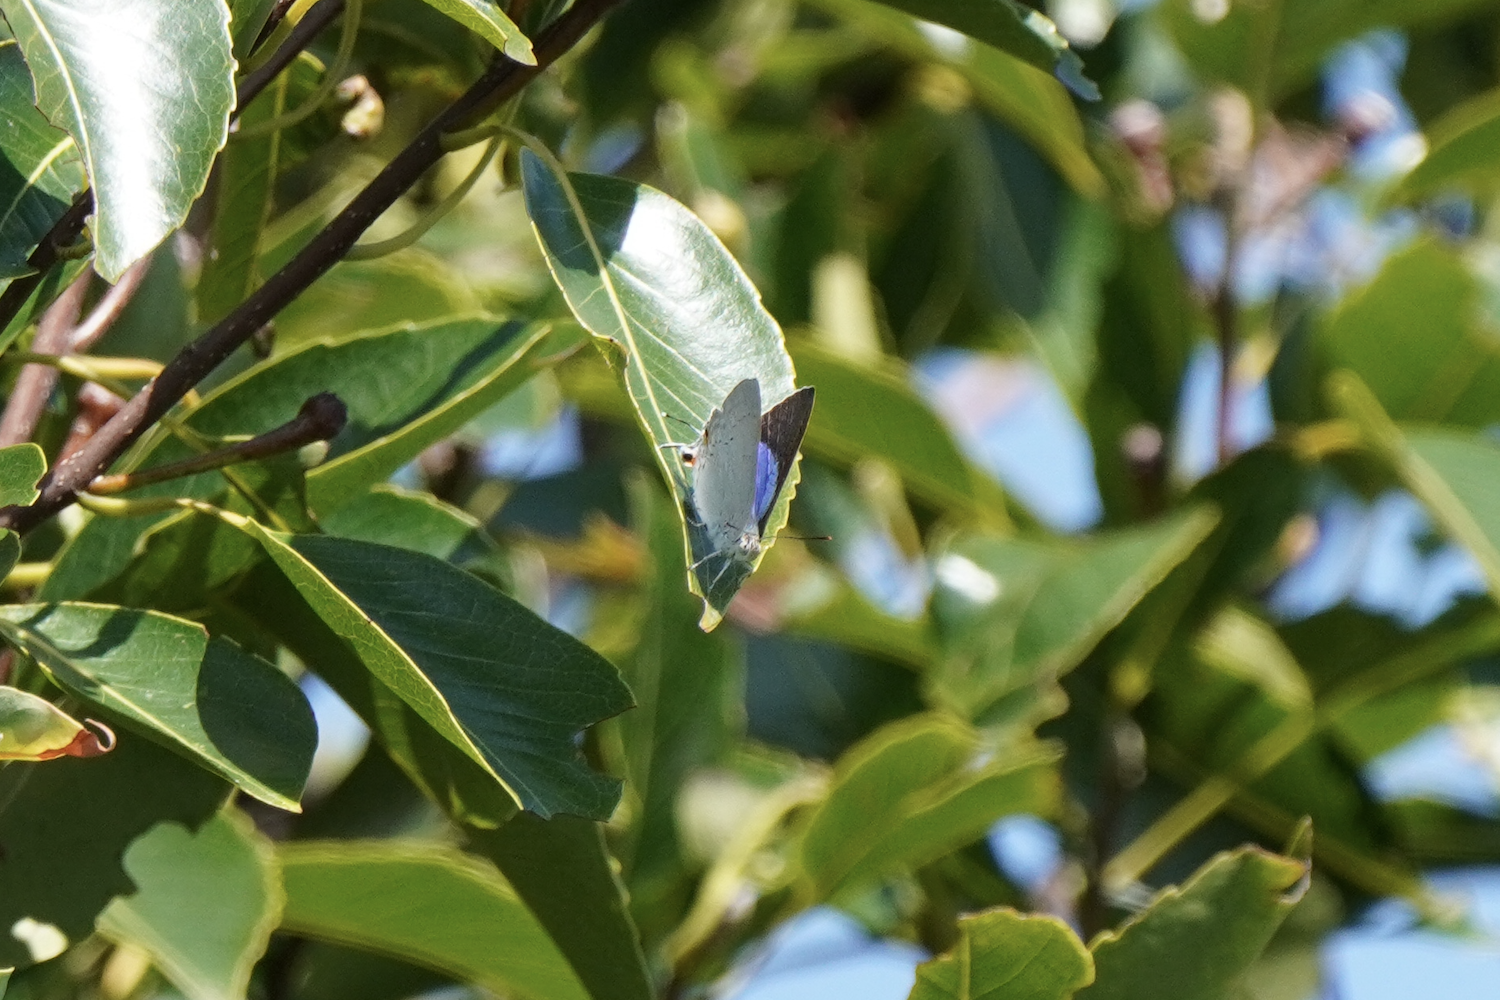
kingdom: Animalia
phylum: Arthropoda
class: Insecta
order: Lepidoptera
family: Lycaenidae
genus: Pratapa
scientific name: Pratapa deva
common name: White royal
